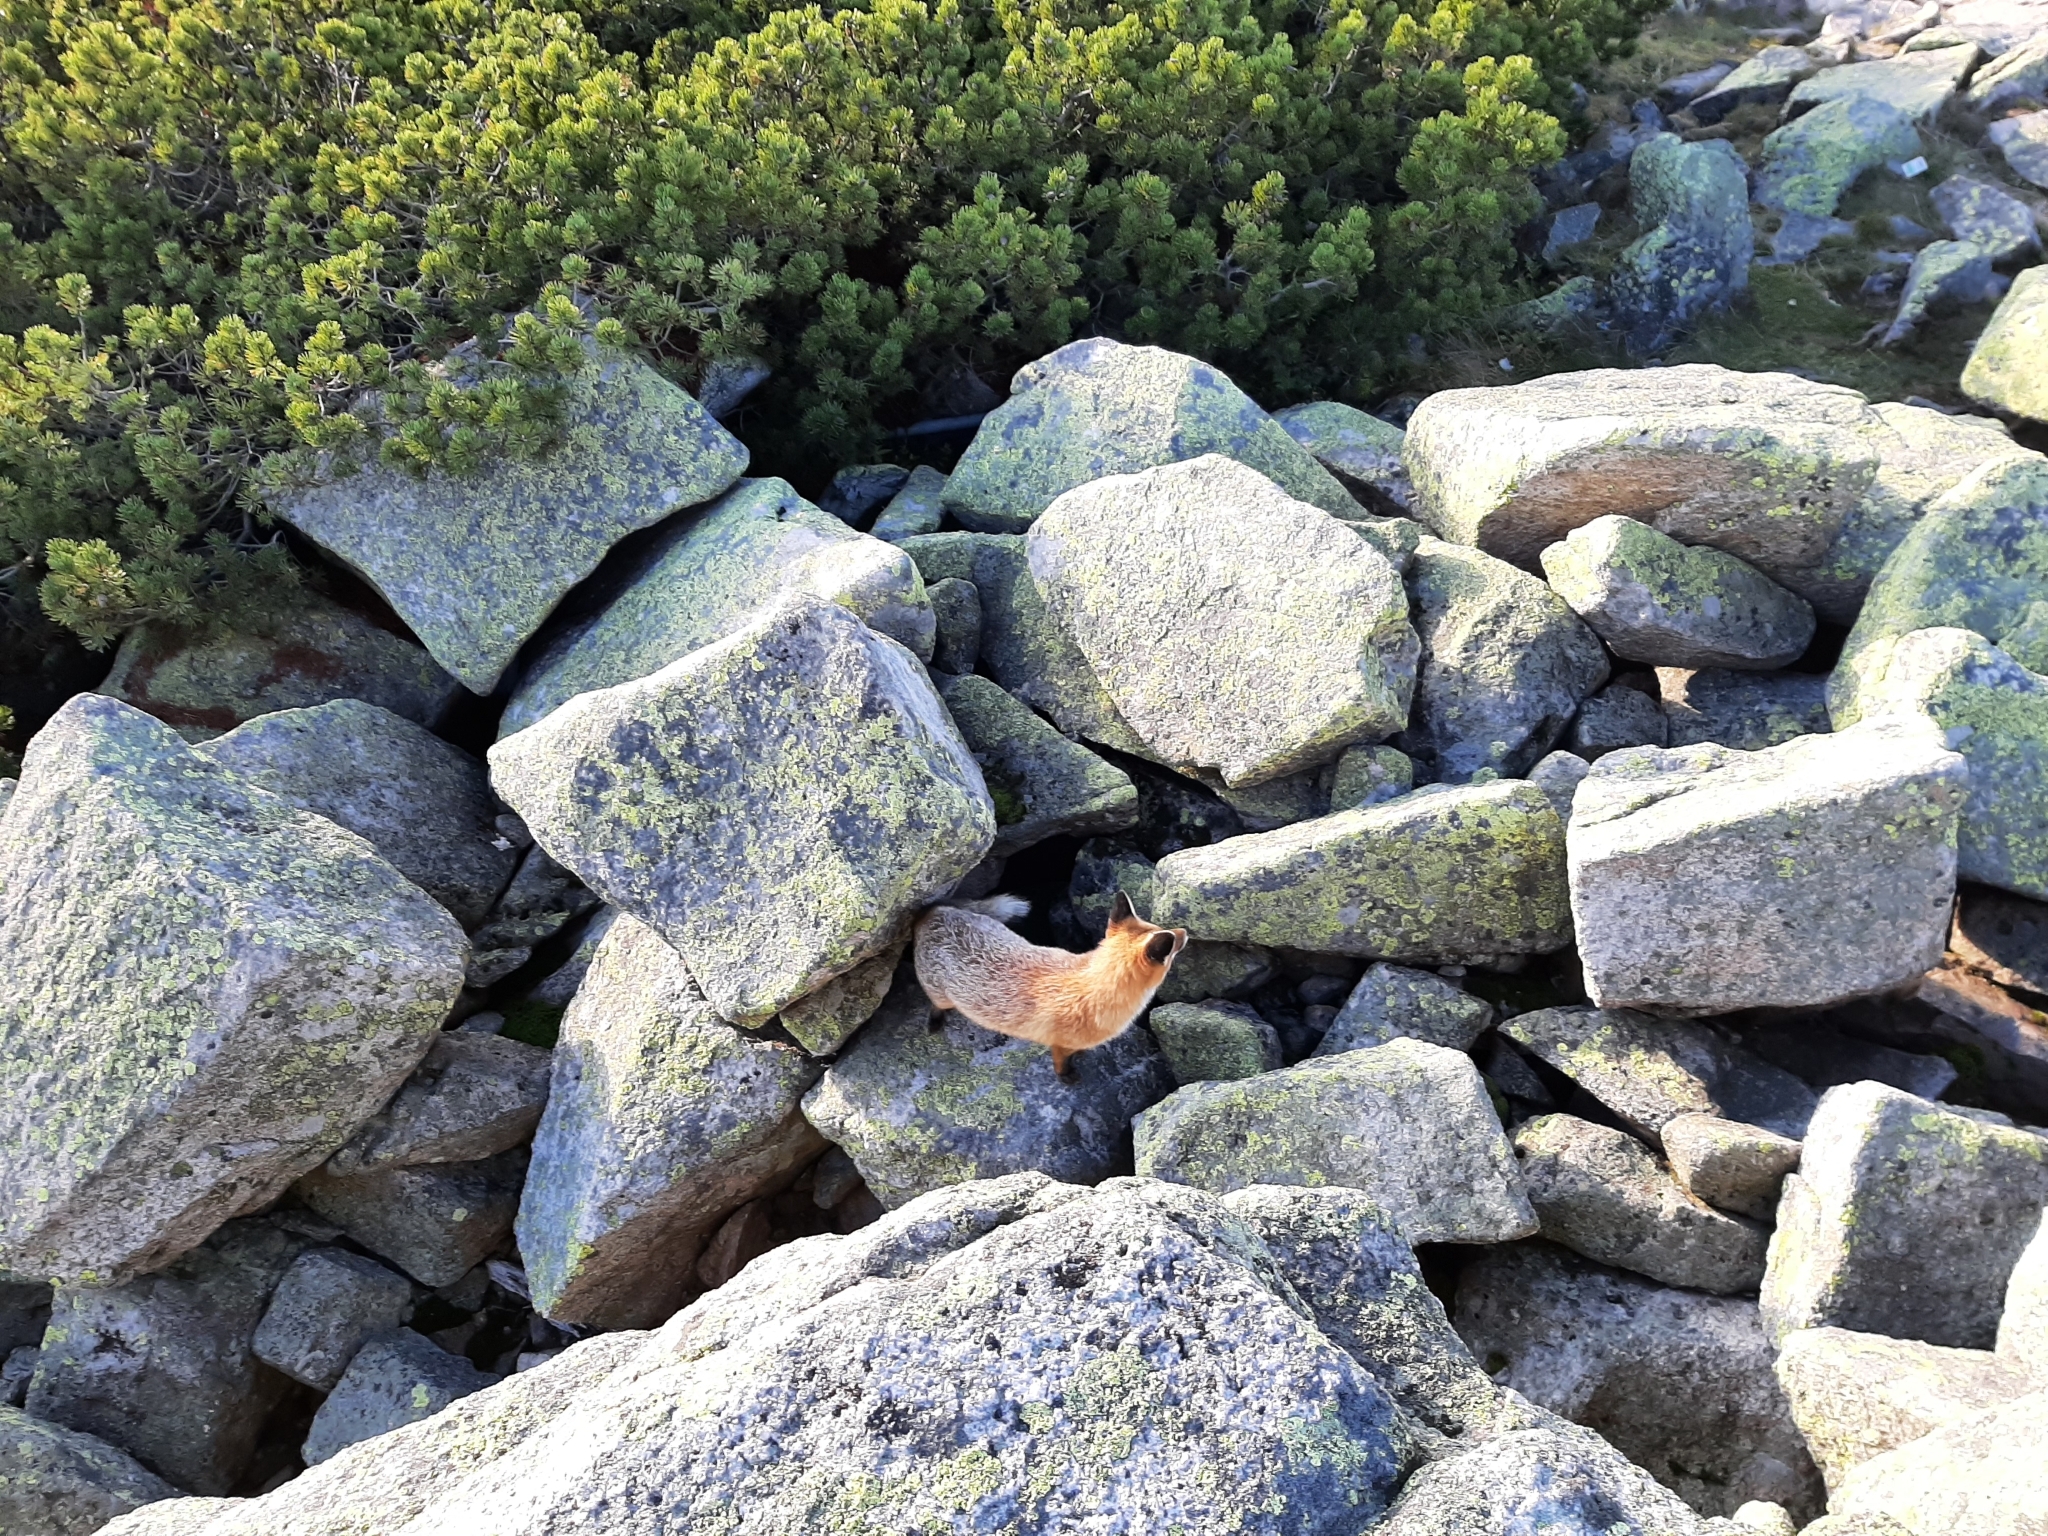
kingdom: Animalia
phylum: Chordata
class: Mammalia
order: Carnivora
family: Canidae
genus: Vulpes
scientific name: Vulpes vulpes
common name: Red fox
